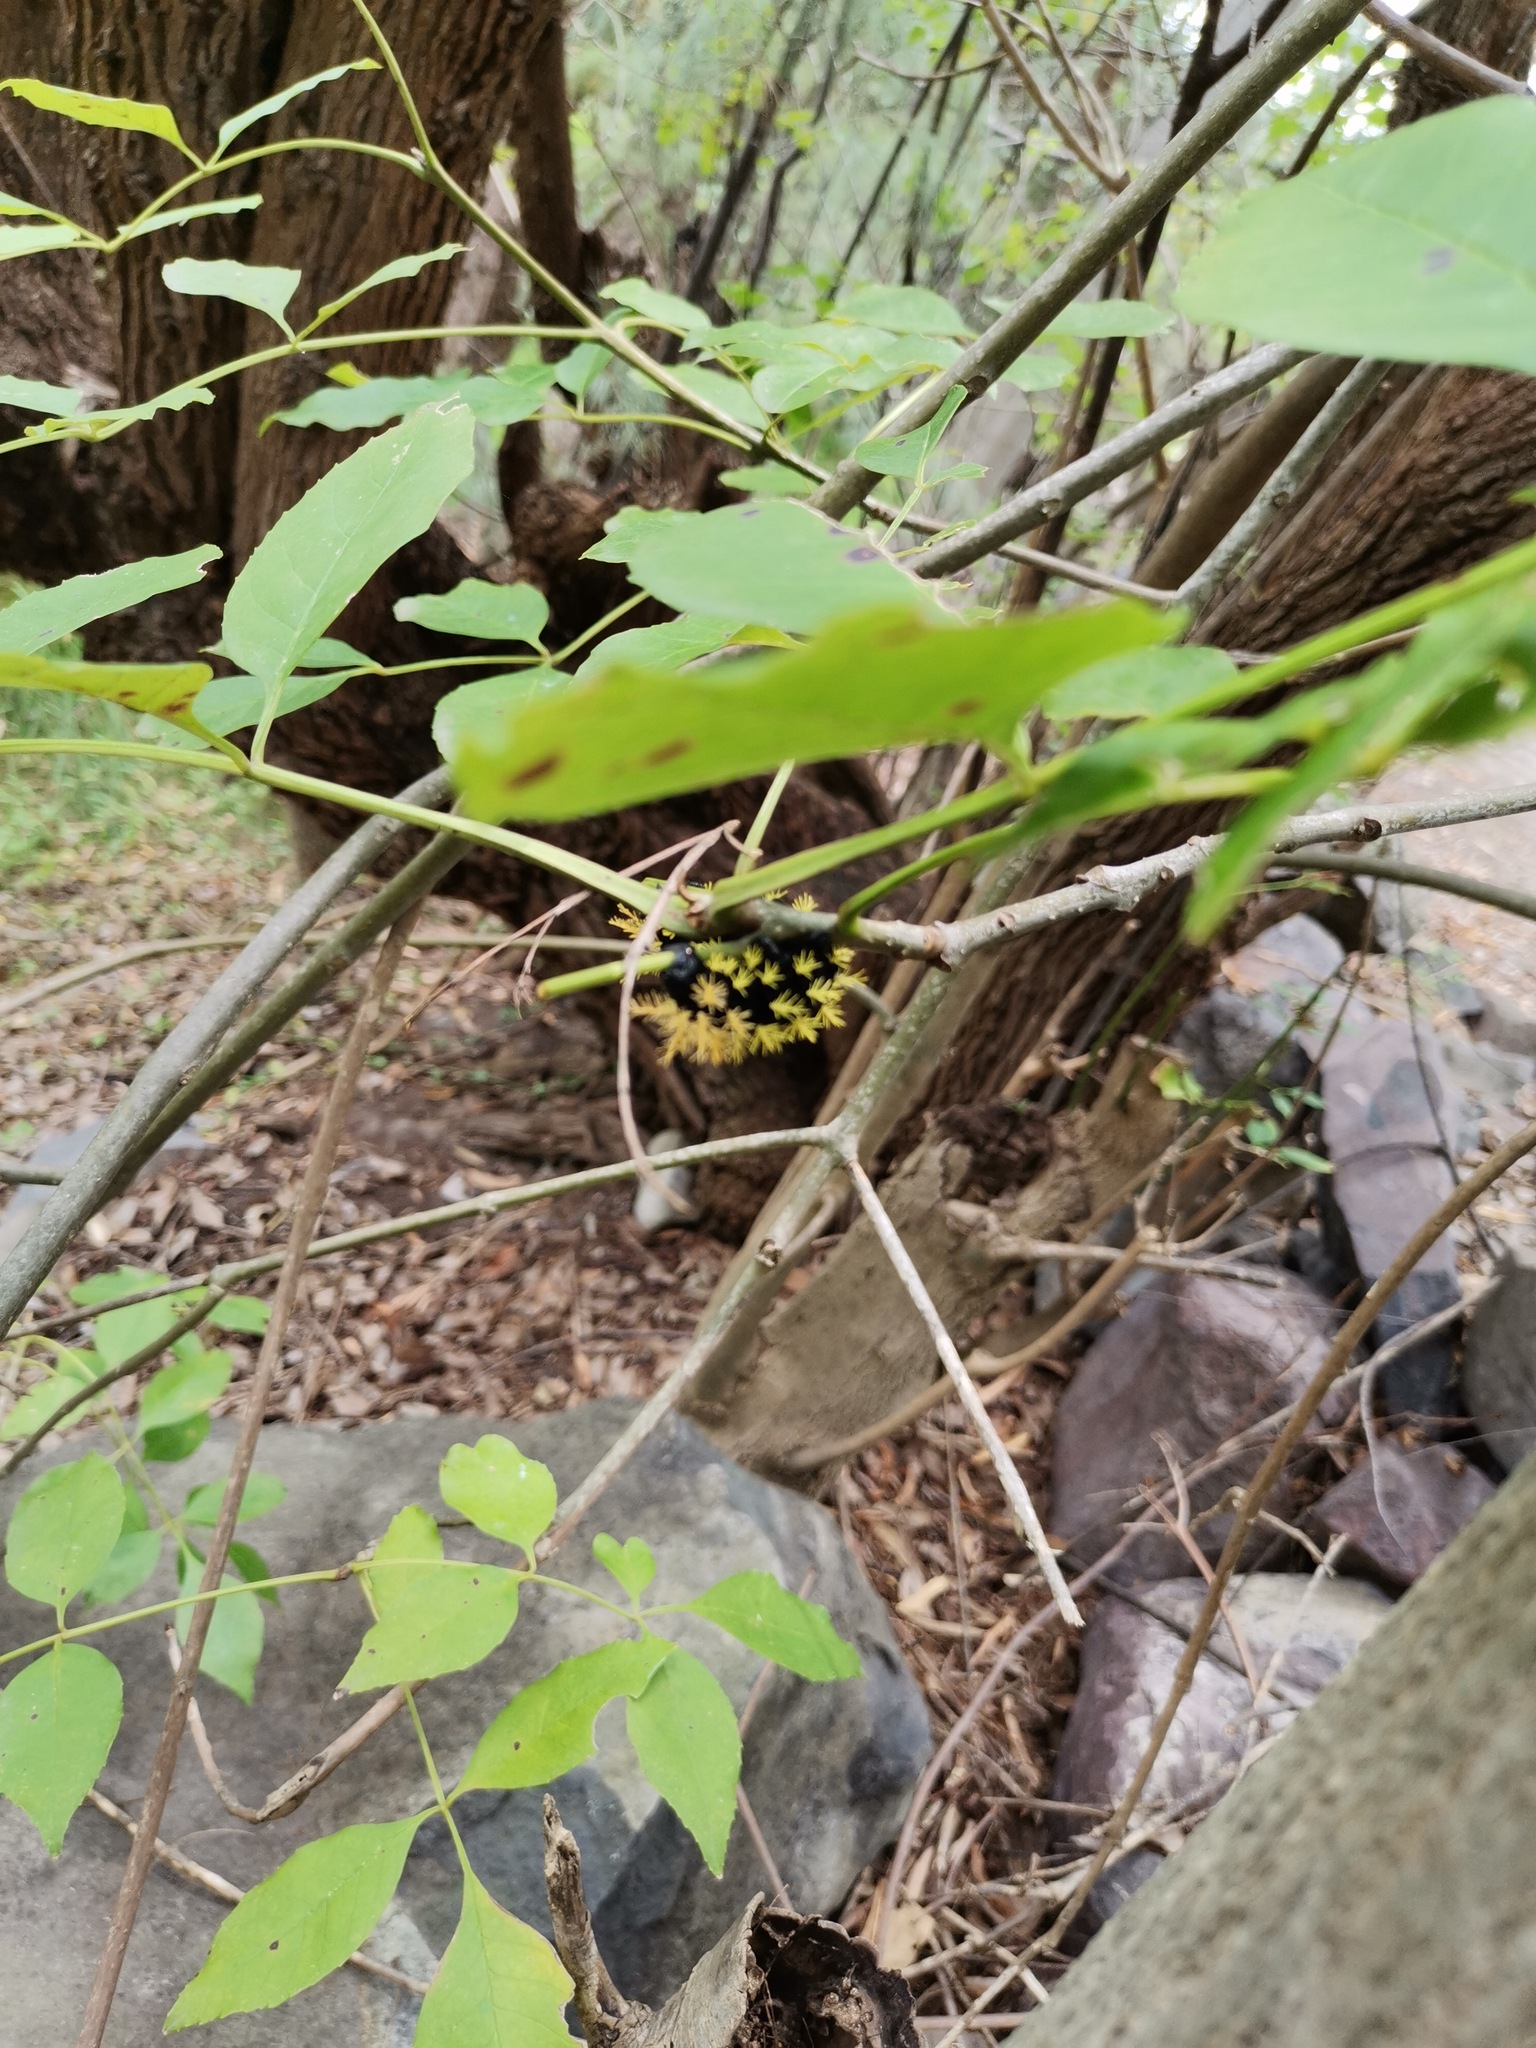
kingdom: Plantae
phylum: Tracheophyta
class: Magnoliopsida
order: Lamiales
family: Oleaceae
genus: Fraxinus
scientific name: Fraxinus uhdei
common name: Shamel ash
